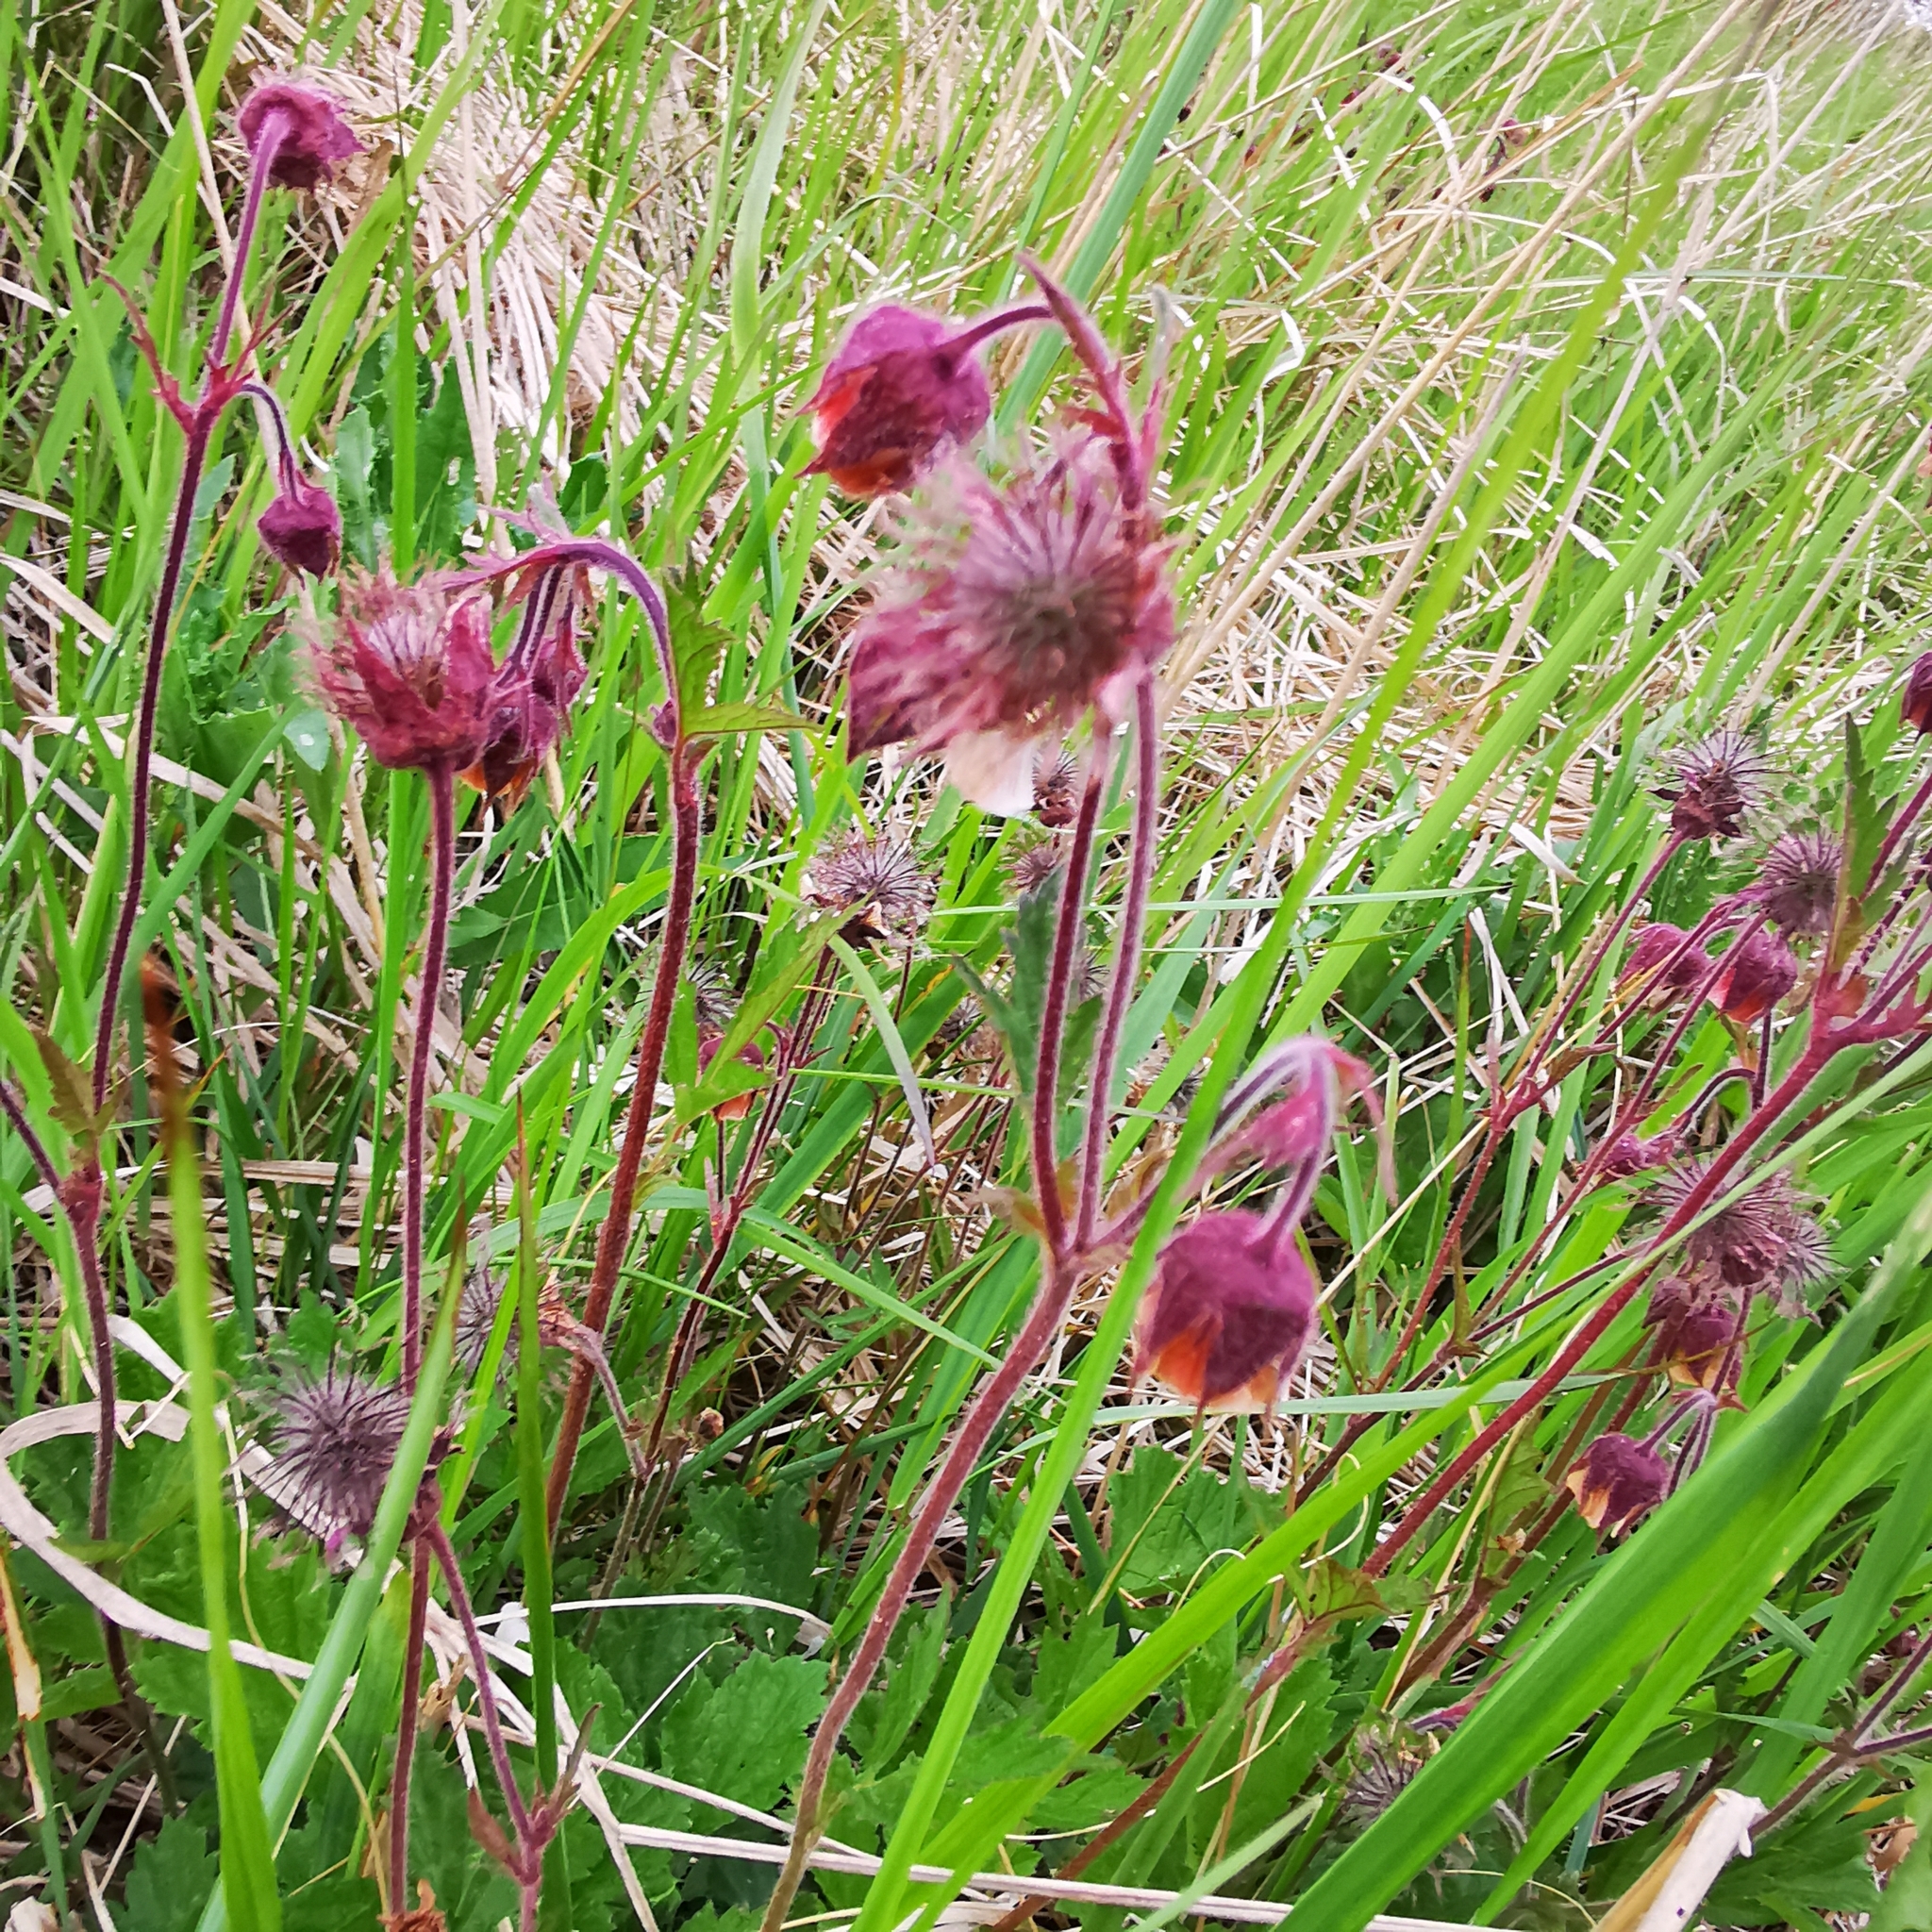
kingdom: Plantae
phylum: Tracheophyta
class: Magnoliopsida
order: Rosales
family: Rosaceae
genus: Geum
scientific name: Geum rivale
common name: Water avens
